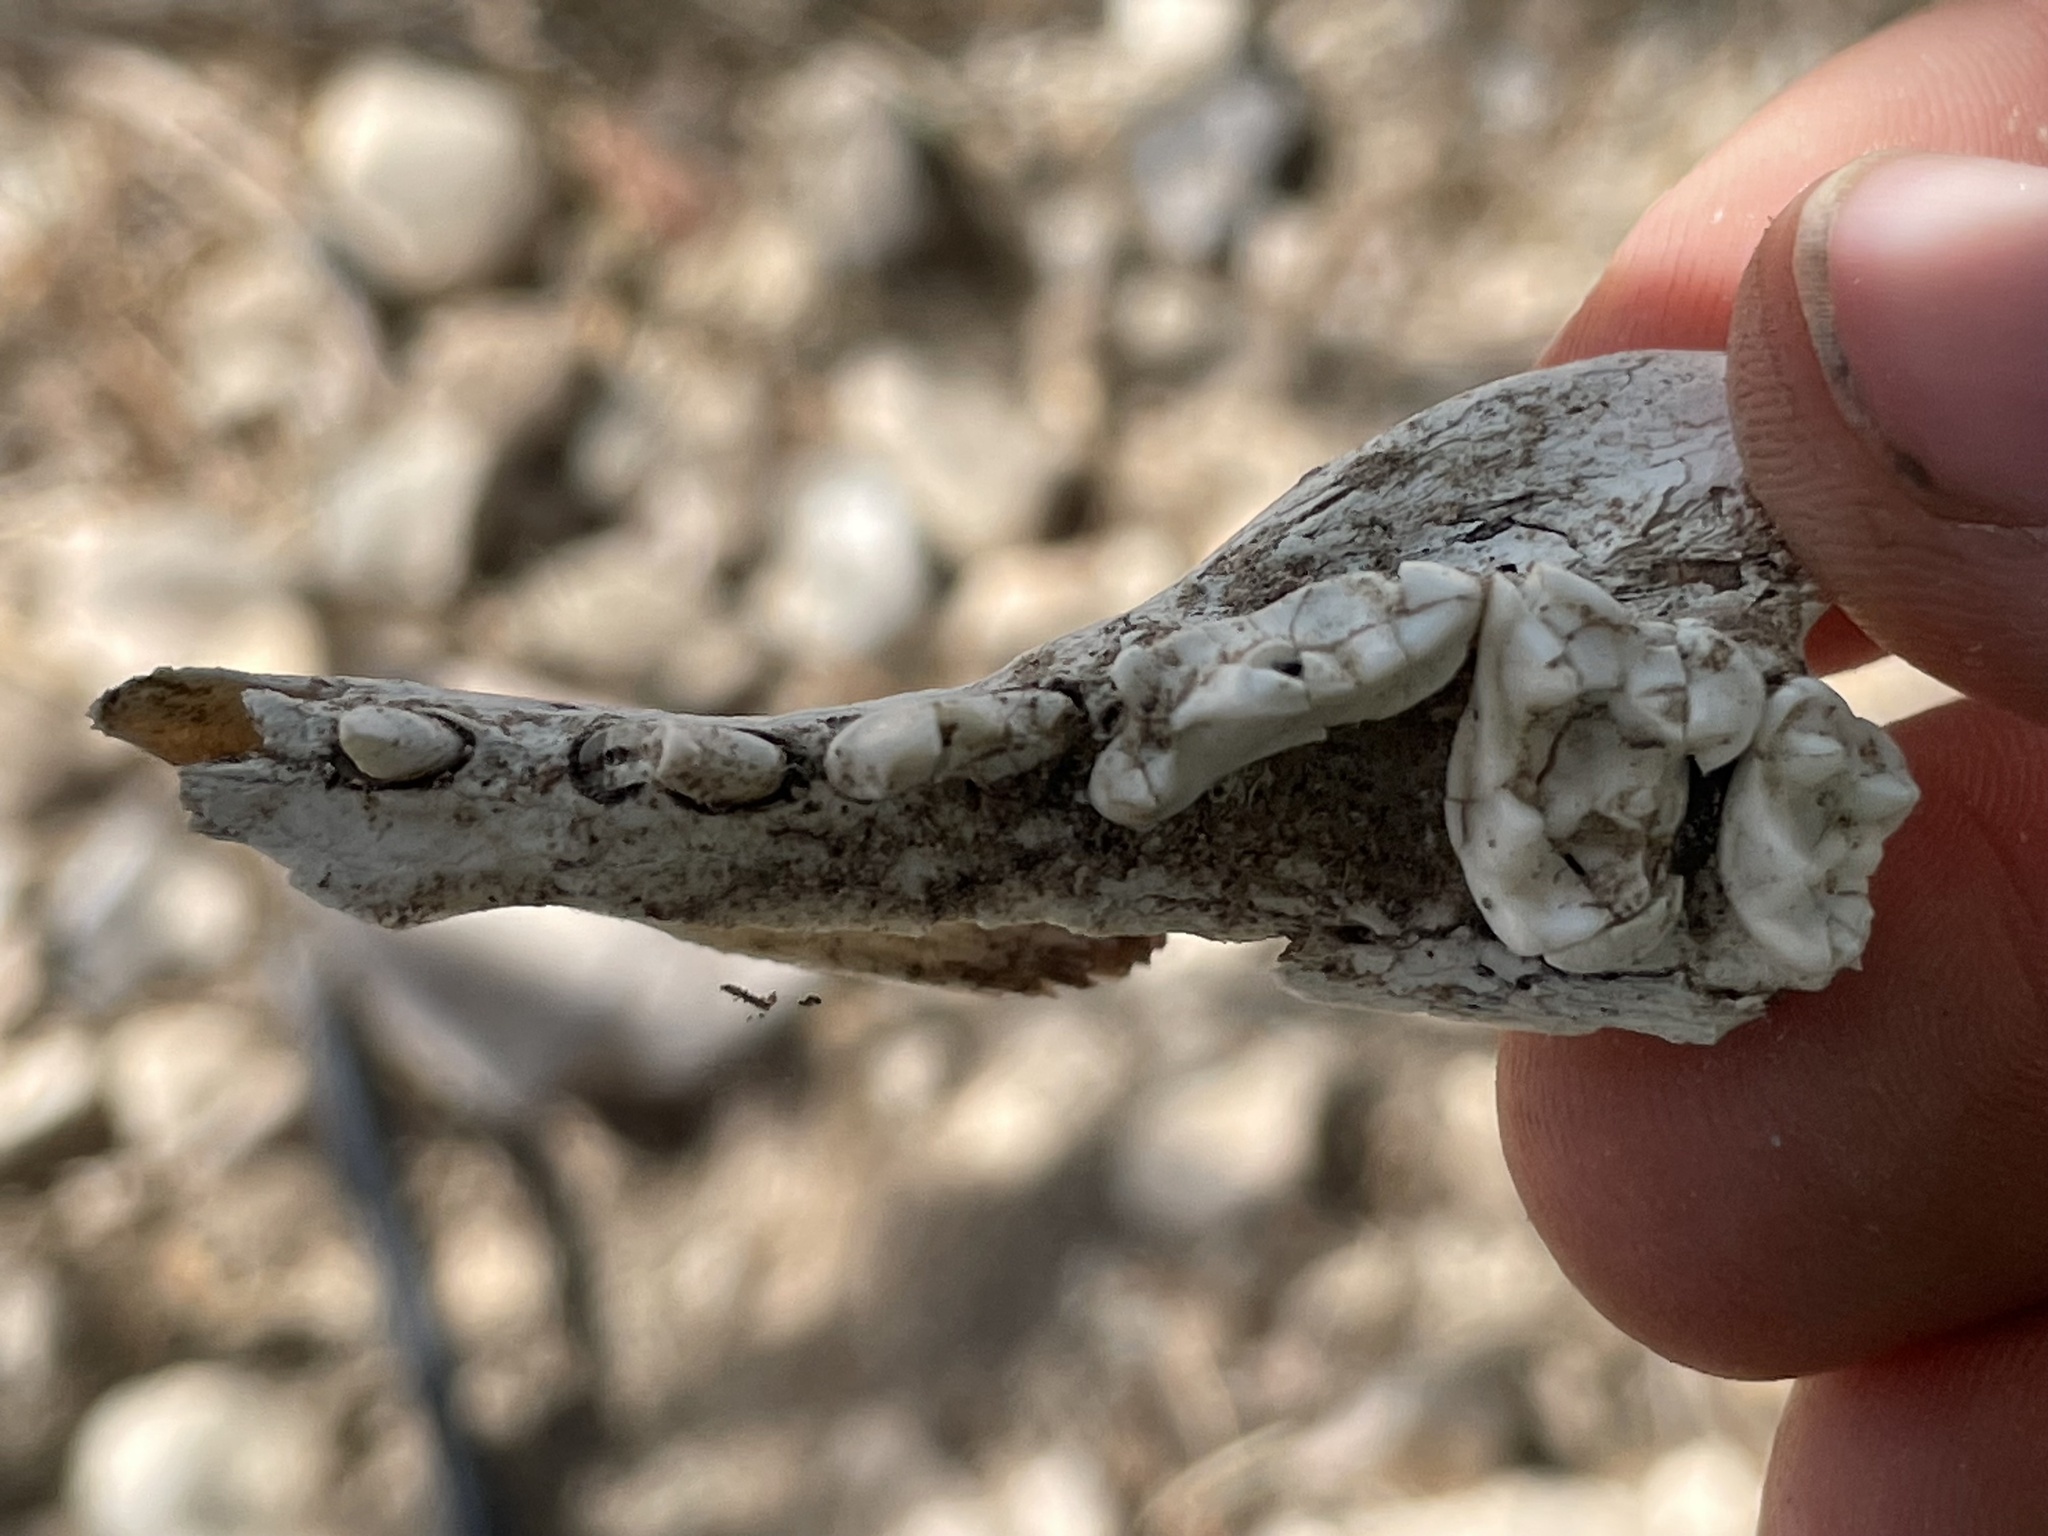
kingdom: Animalia
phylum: Chordata
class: Mammalia
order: Carnivora
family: Canidae
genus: Urocyon
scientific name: Urocyon cinereoargenteus
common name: Gray fox
